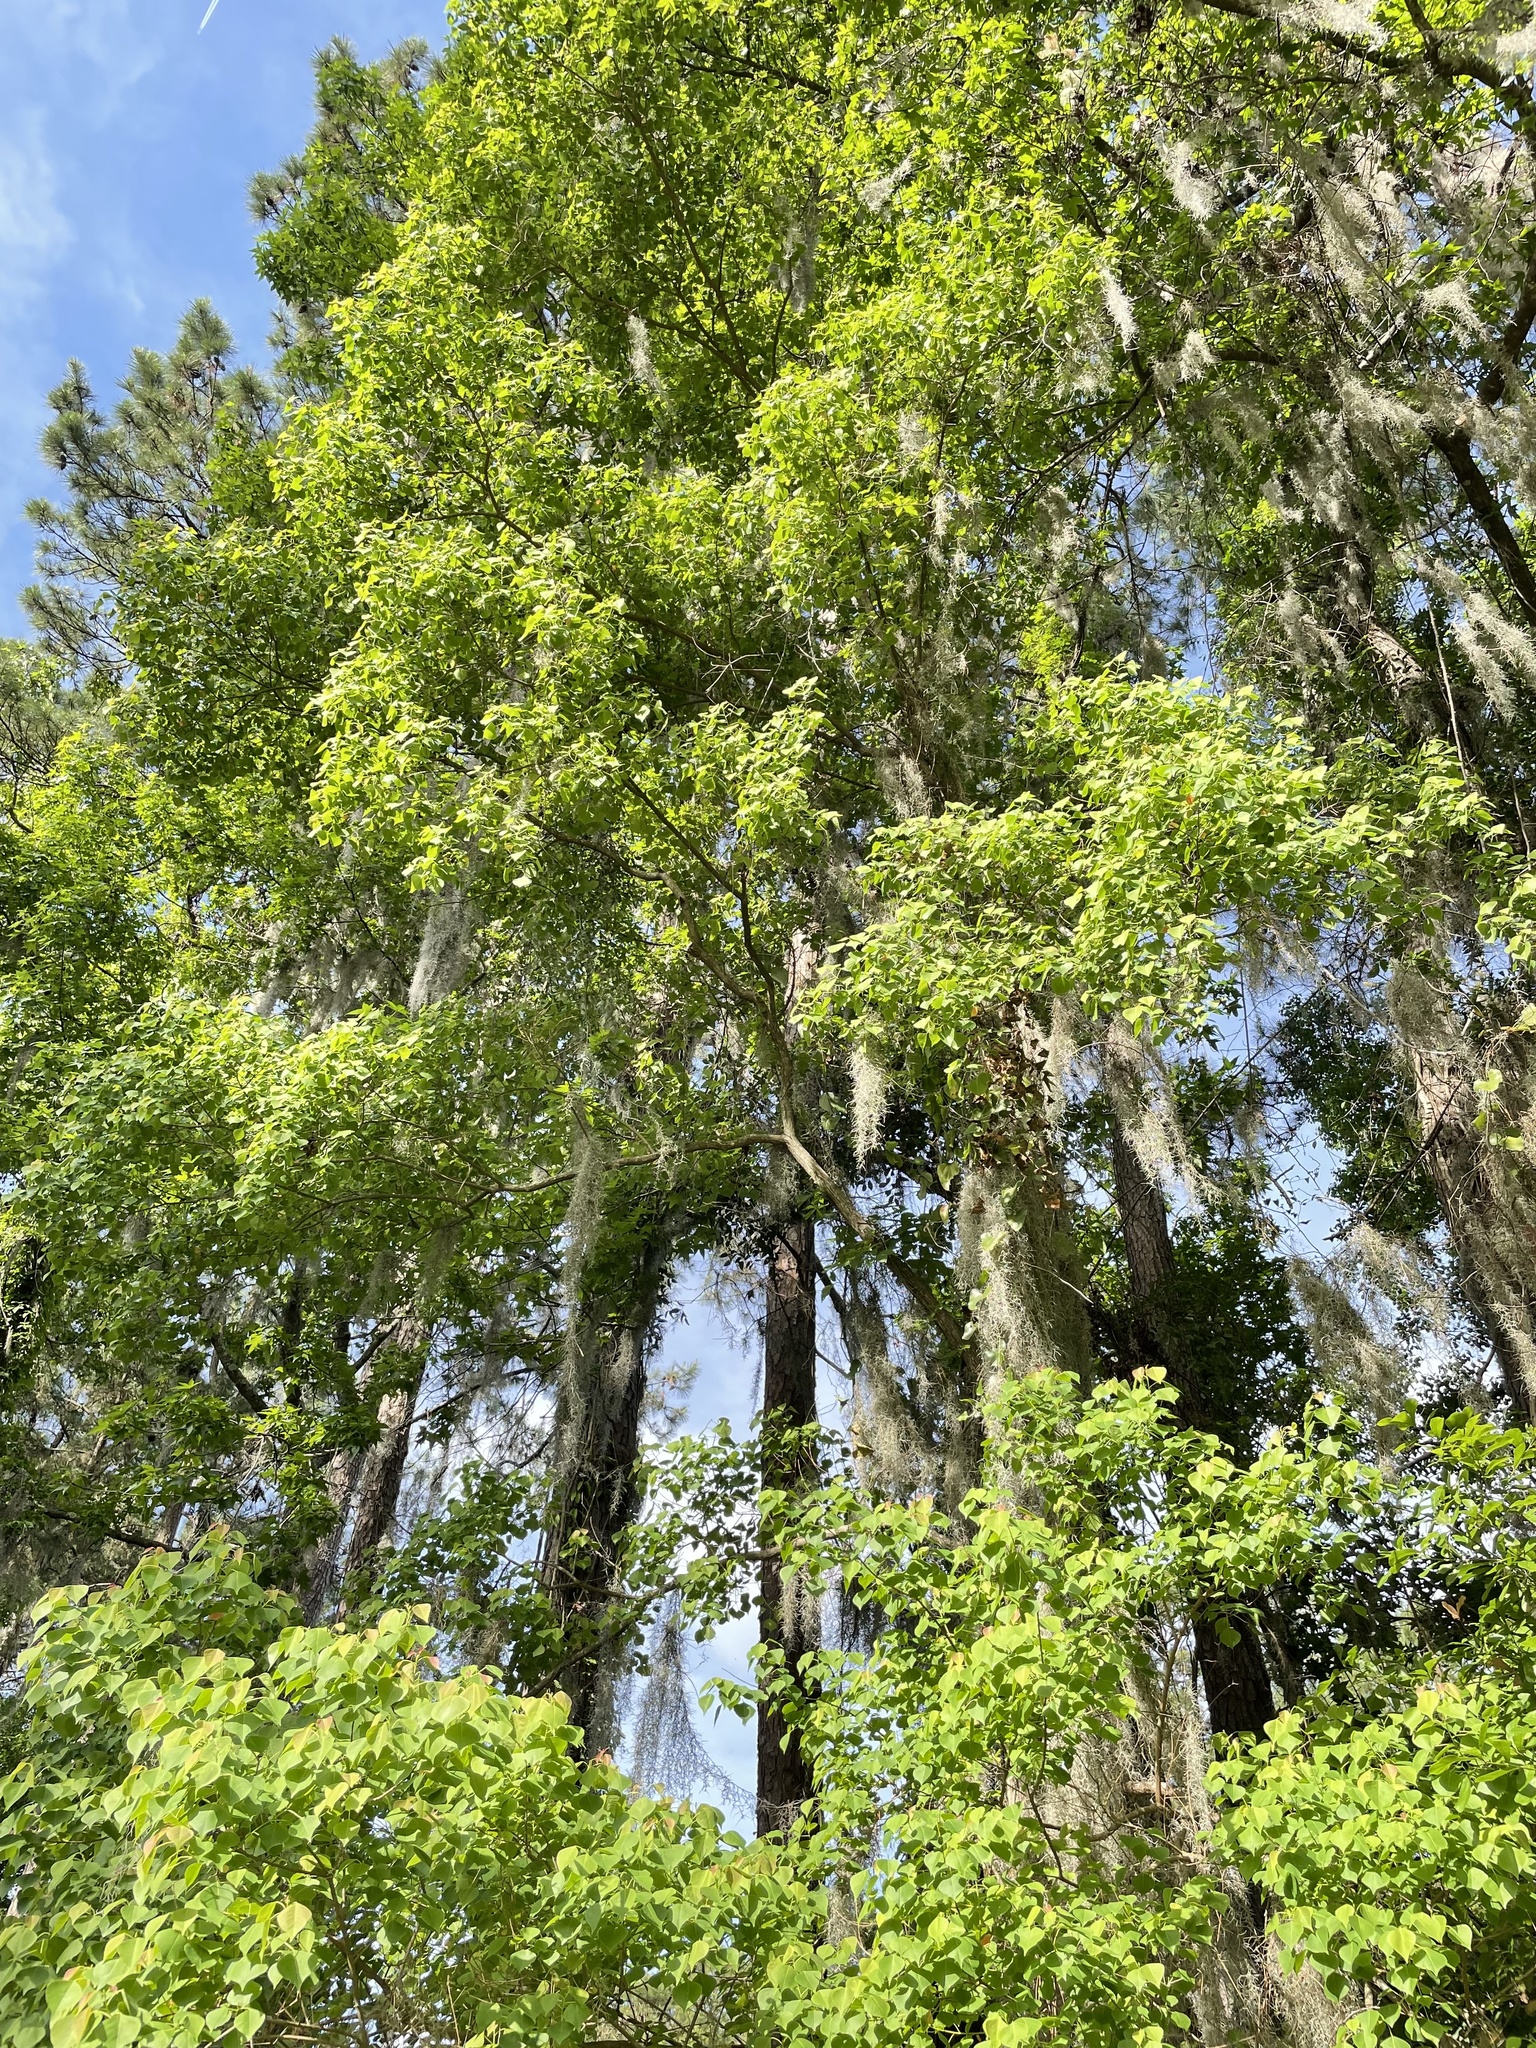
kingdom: Plantae
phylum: Tracheophyta
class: Magnoliopsida
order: Malpighiales
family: Euphorbiaceae
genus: Triadica
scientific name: Triadica sebifera
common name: Chinese tallow
